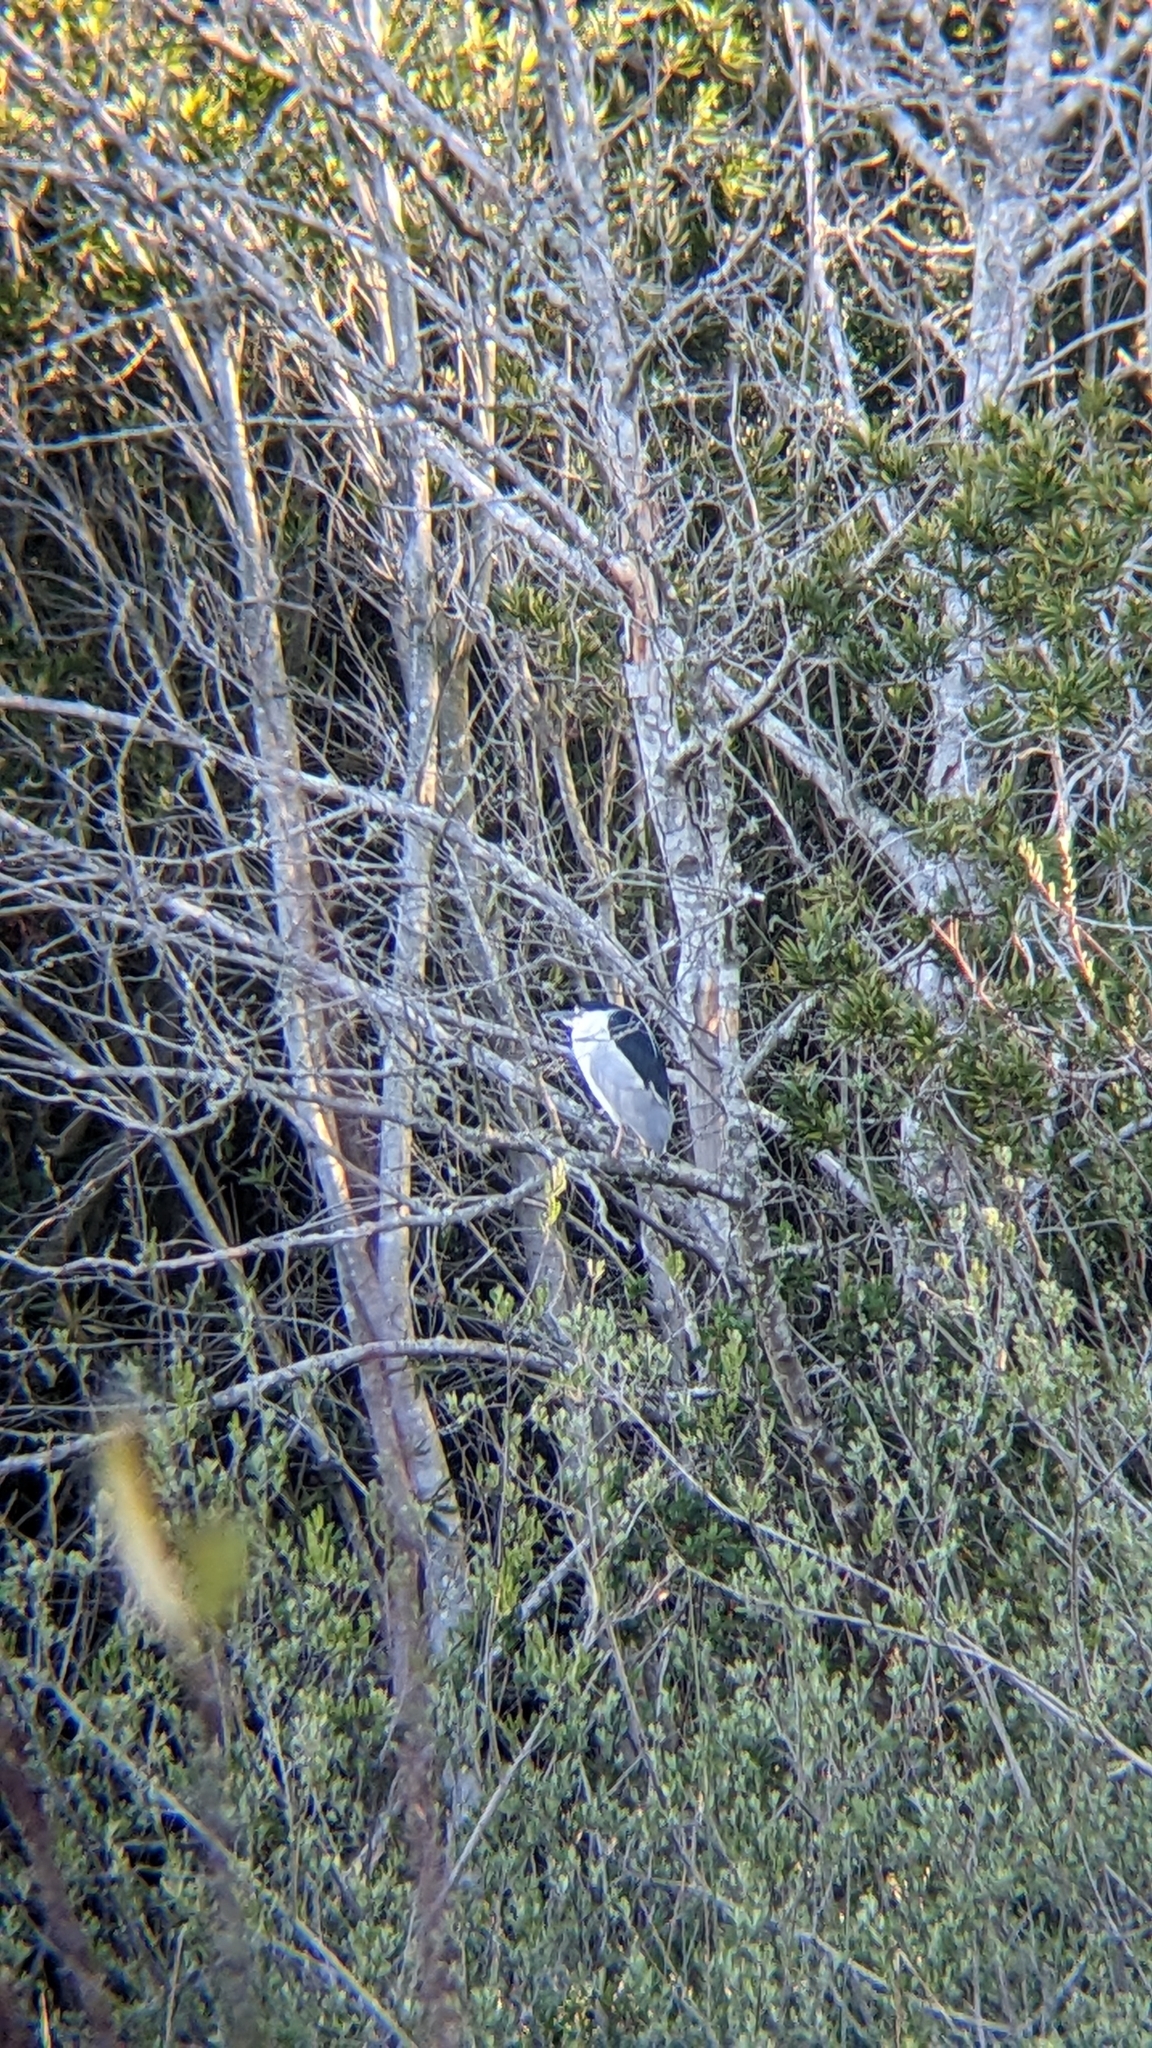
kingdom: Animalia
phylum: Chordata
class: Aves
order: Pelecaniformes
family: Ardeidae
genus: Nycticorax
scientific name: Nycticorax nycticorax
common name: Black-crowned night heron
